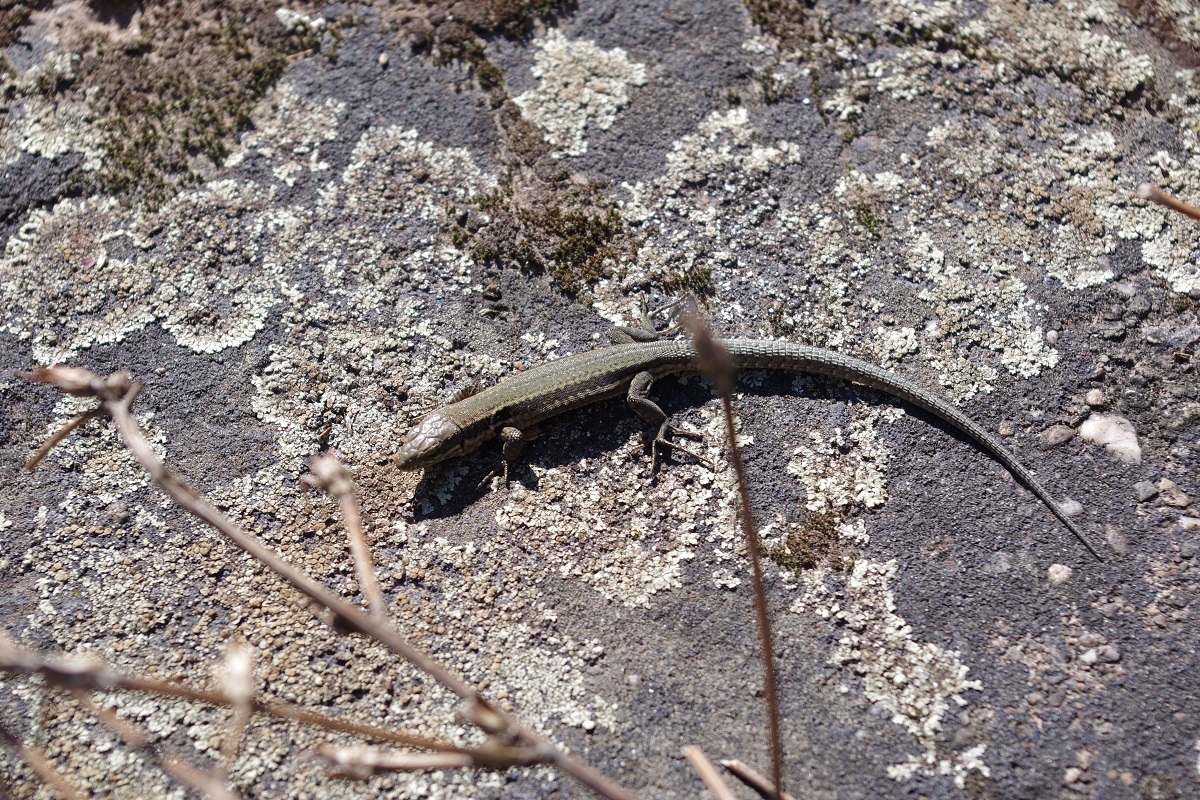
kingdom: Animalia
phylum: Chordata
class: Squamata
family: Lacertidae
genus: Podarcis
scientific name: Podarcis muralis
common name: Common wall lizard
